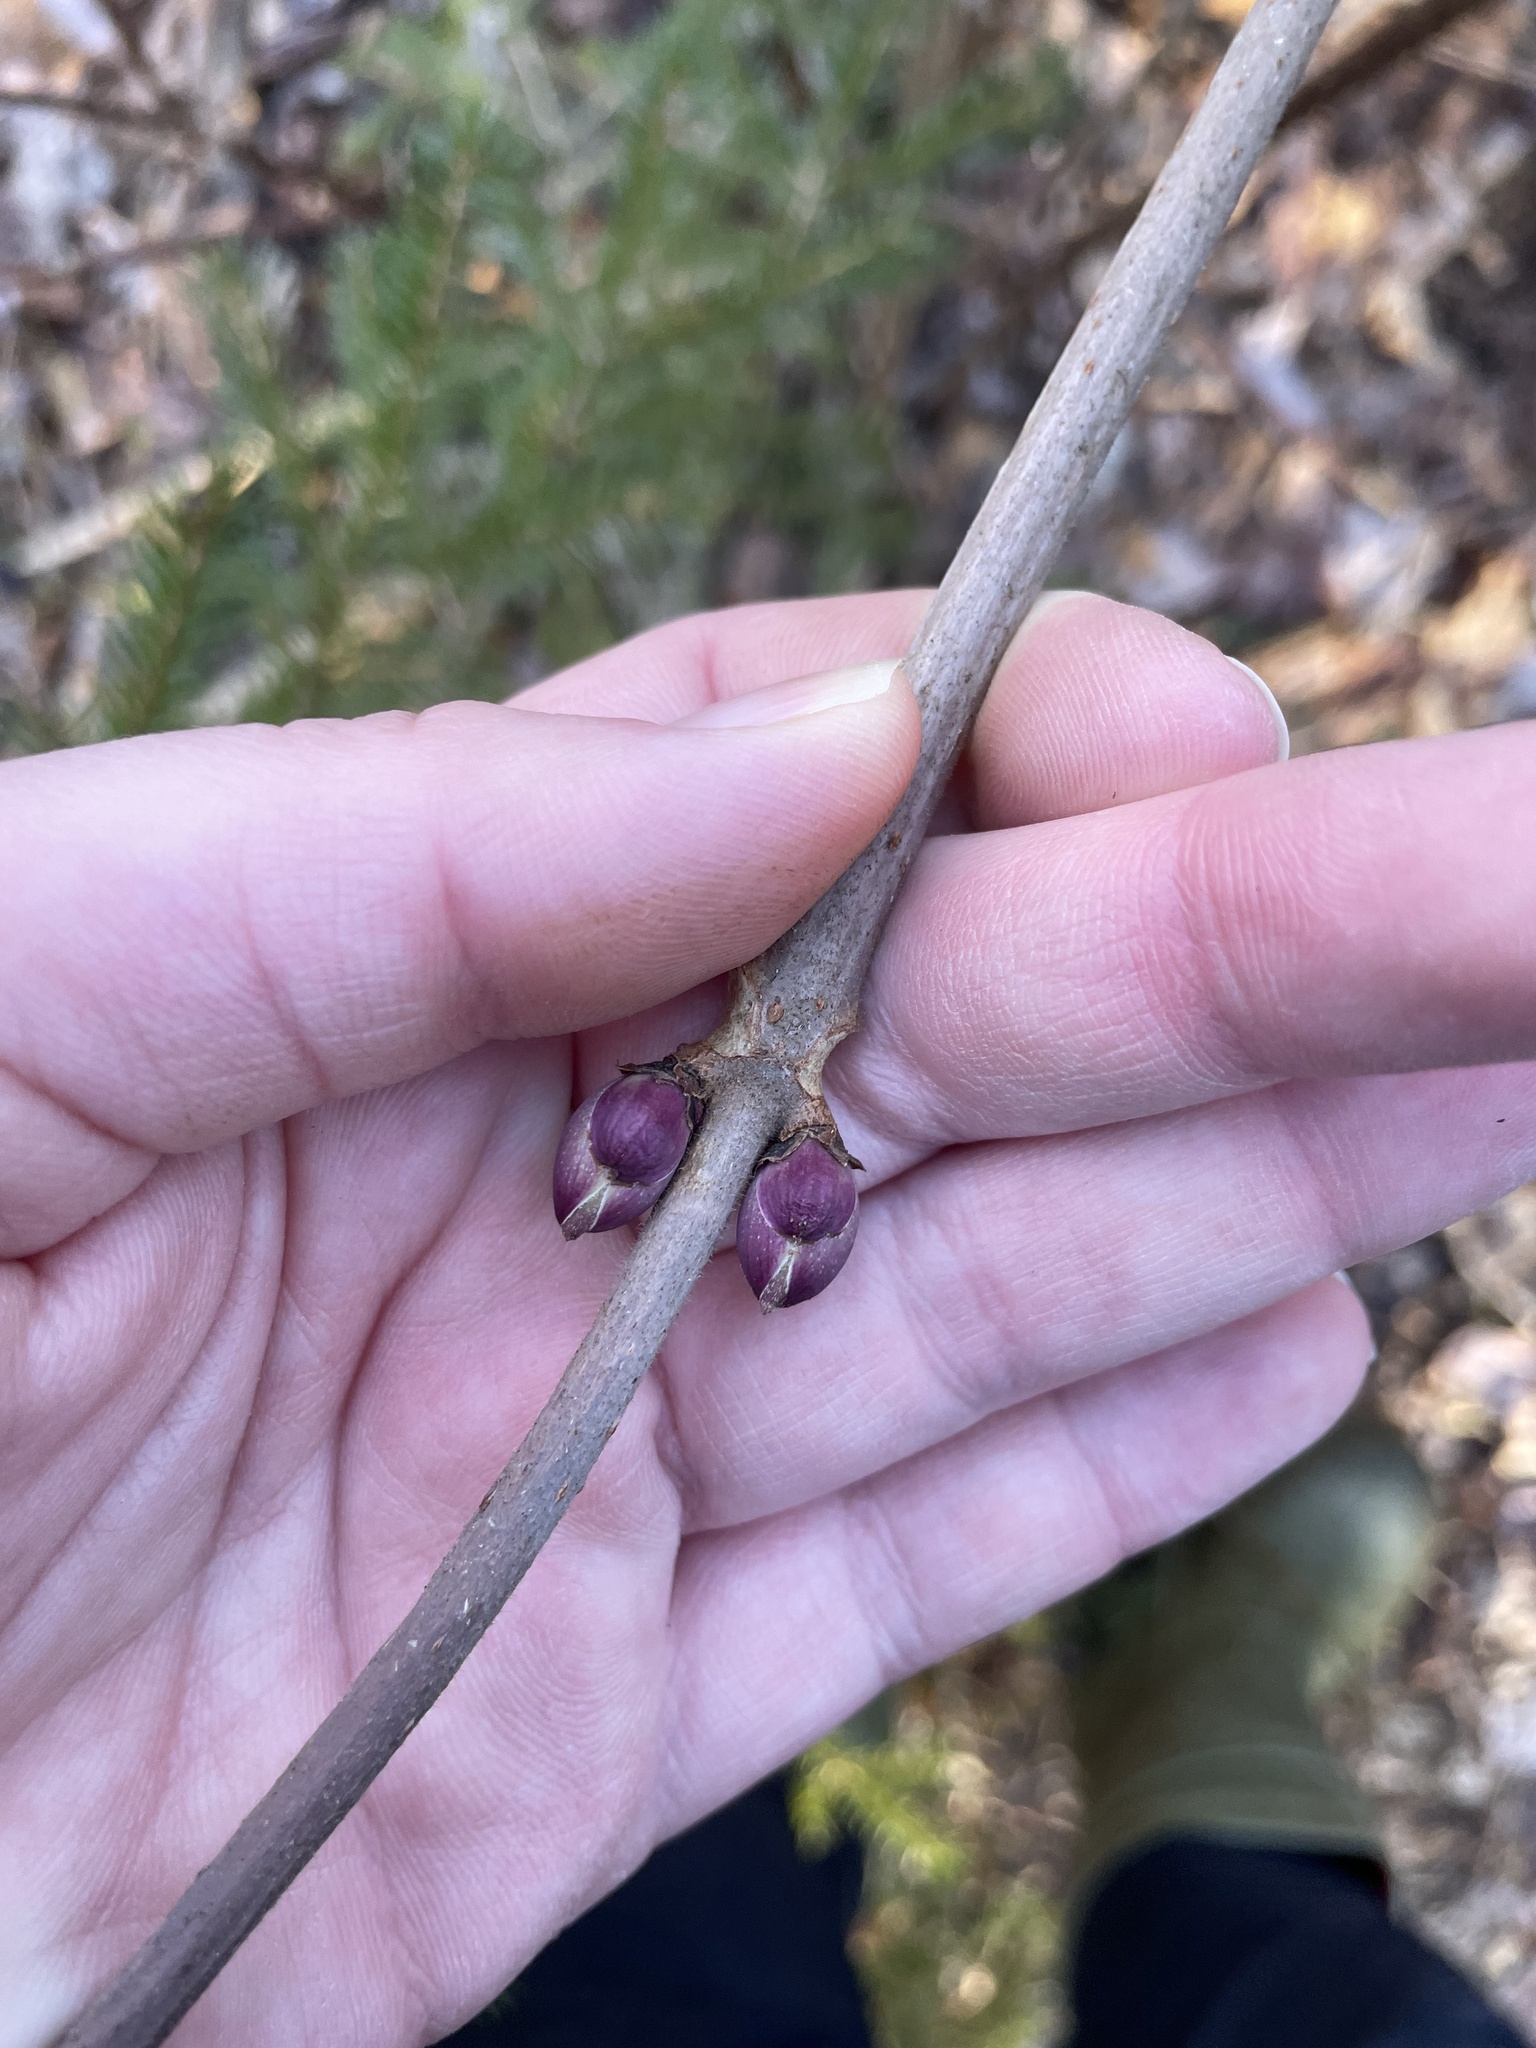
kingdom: Plantae
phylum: Tracheophyta
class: Magnoliopsida
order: Dipsacales
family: Viburnaceae
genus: Sambucus
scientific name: Sambucus racemosa
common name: Red-berried elder
